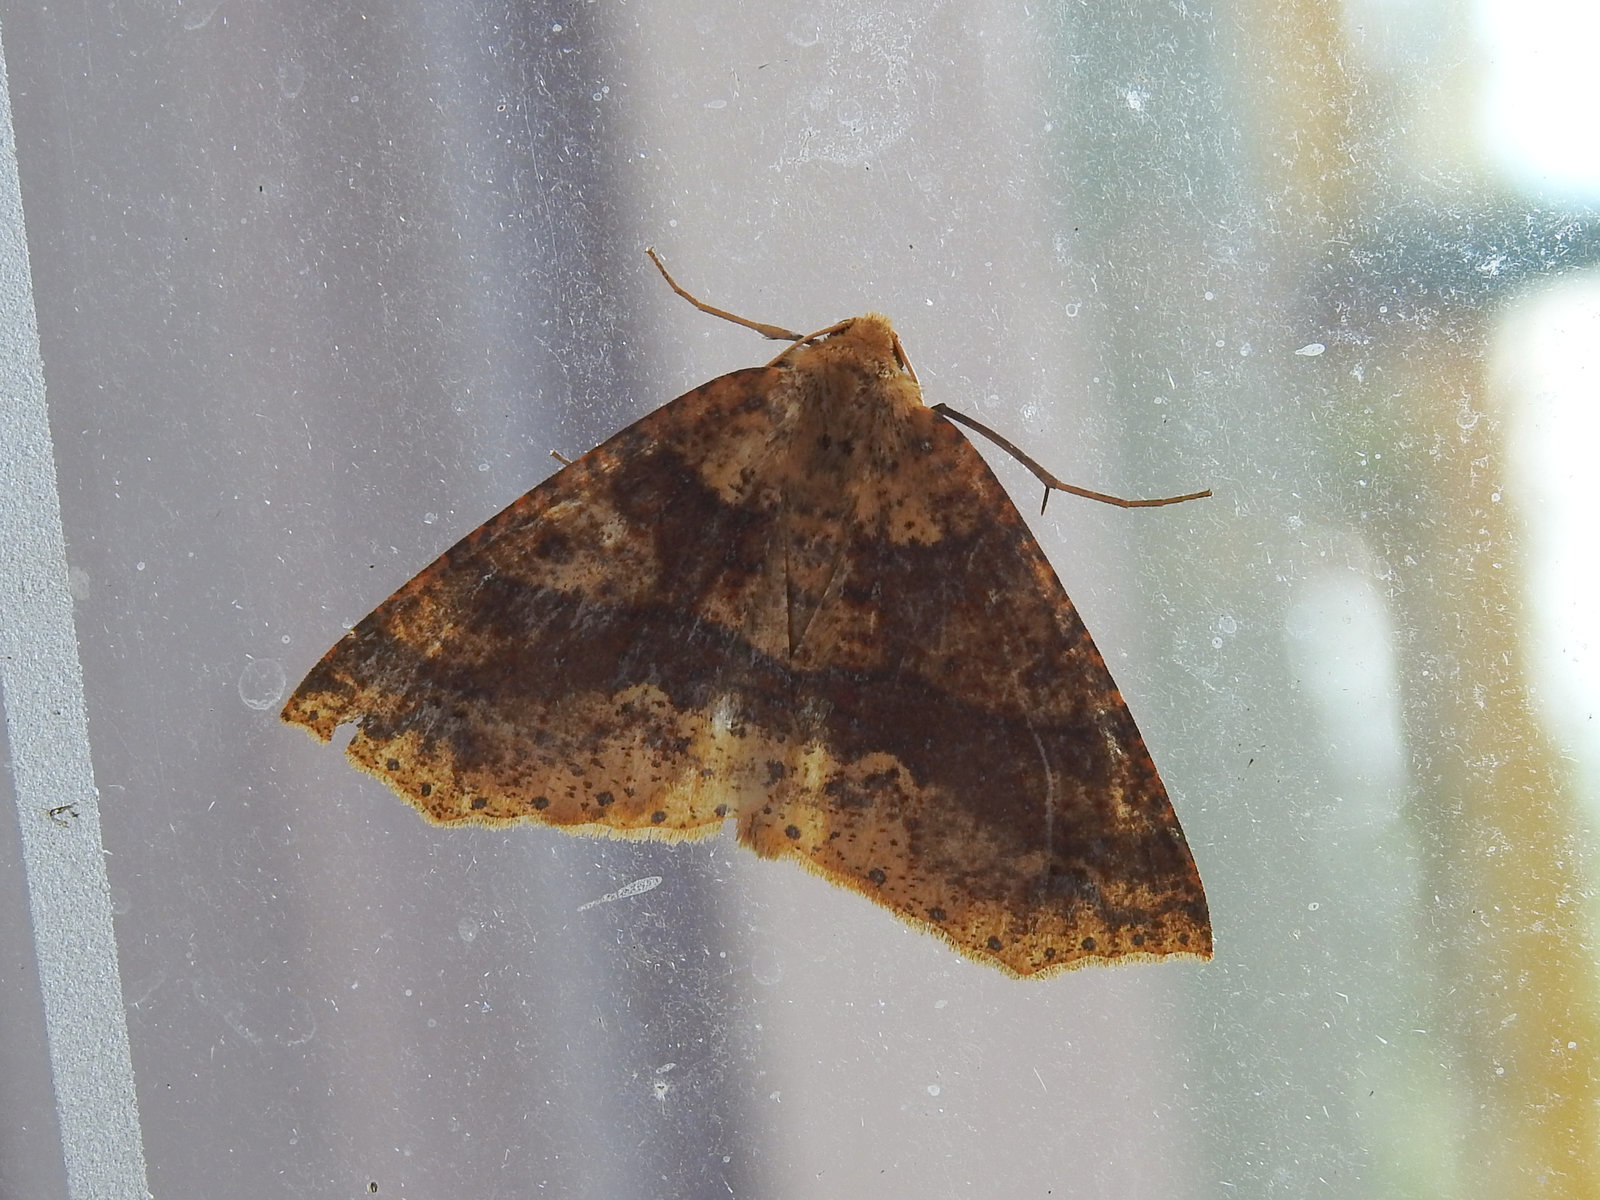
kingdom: Animalia
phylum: Arthropoda
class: Insecta
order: Lepidoptera
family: Geometridae
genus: Psyra
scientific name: Psyra spurcataria
